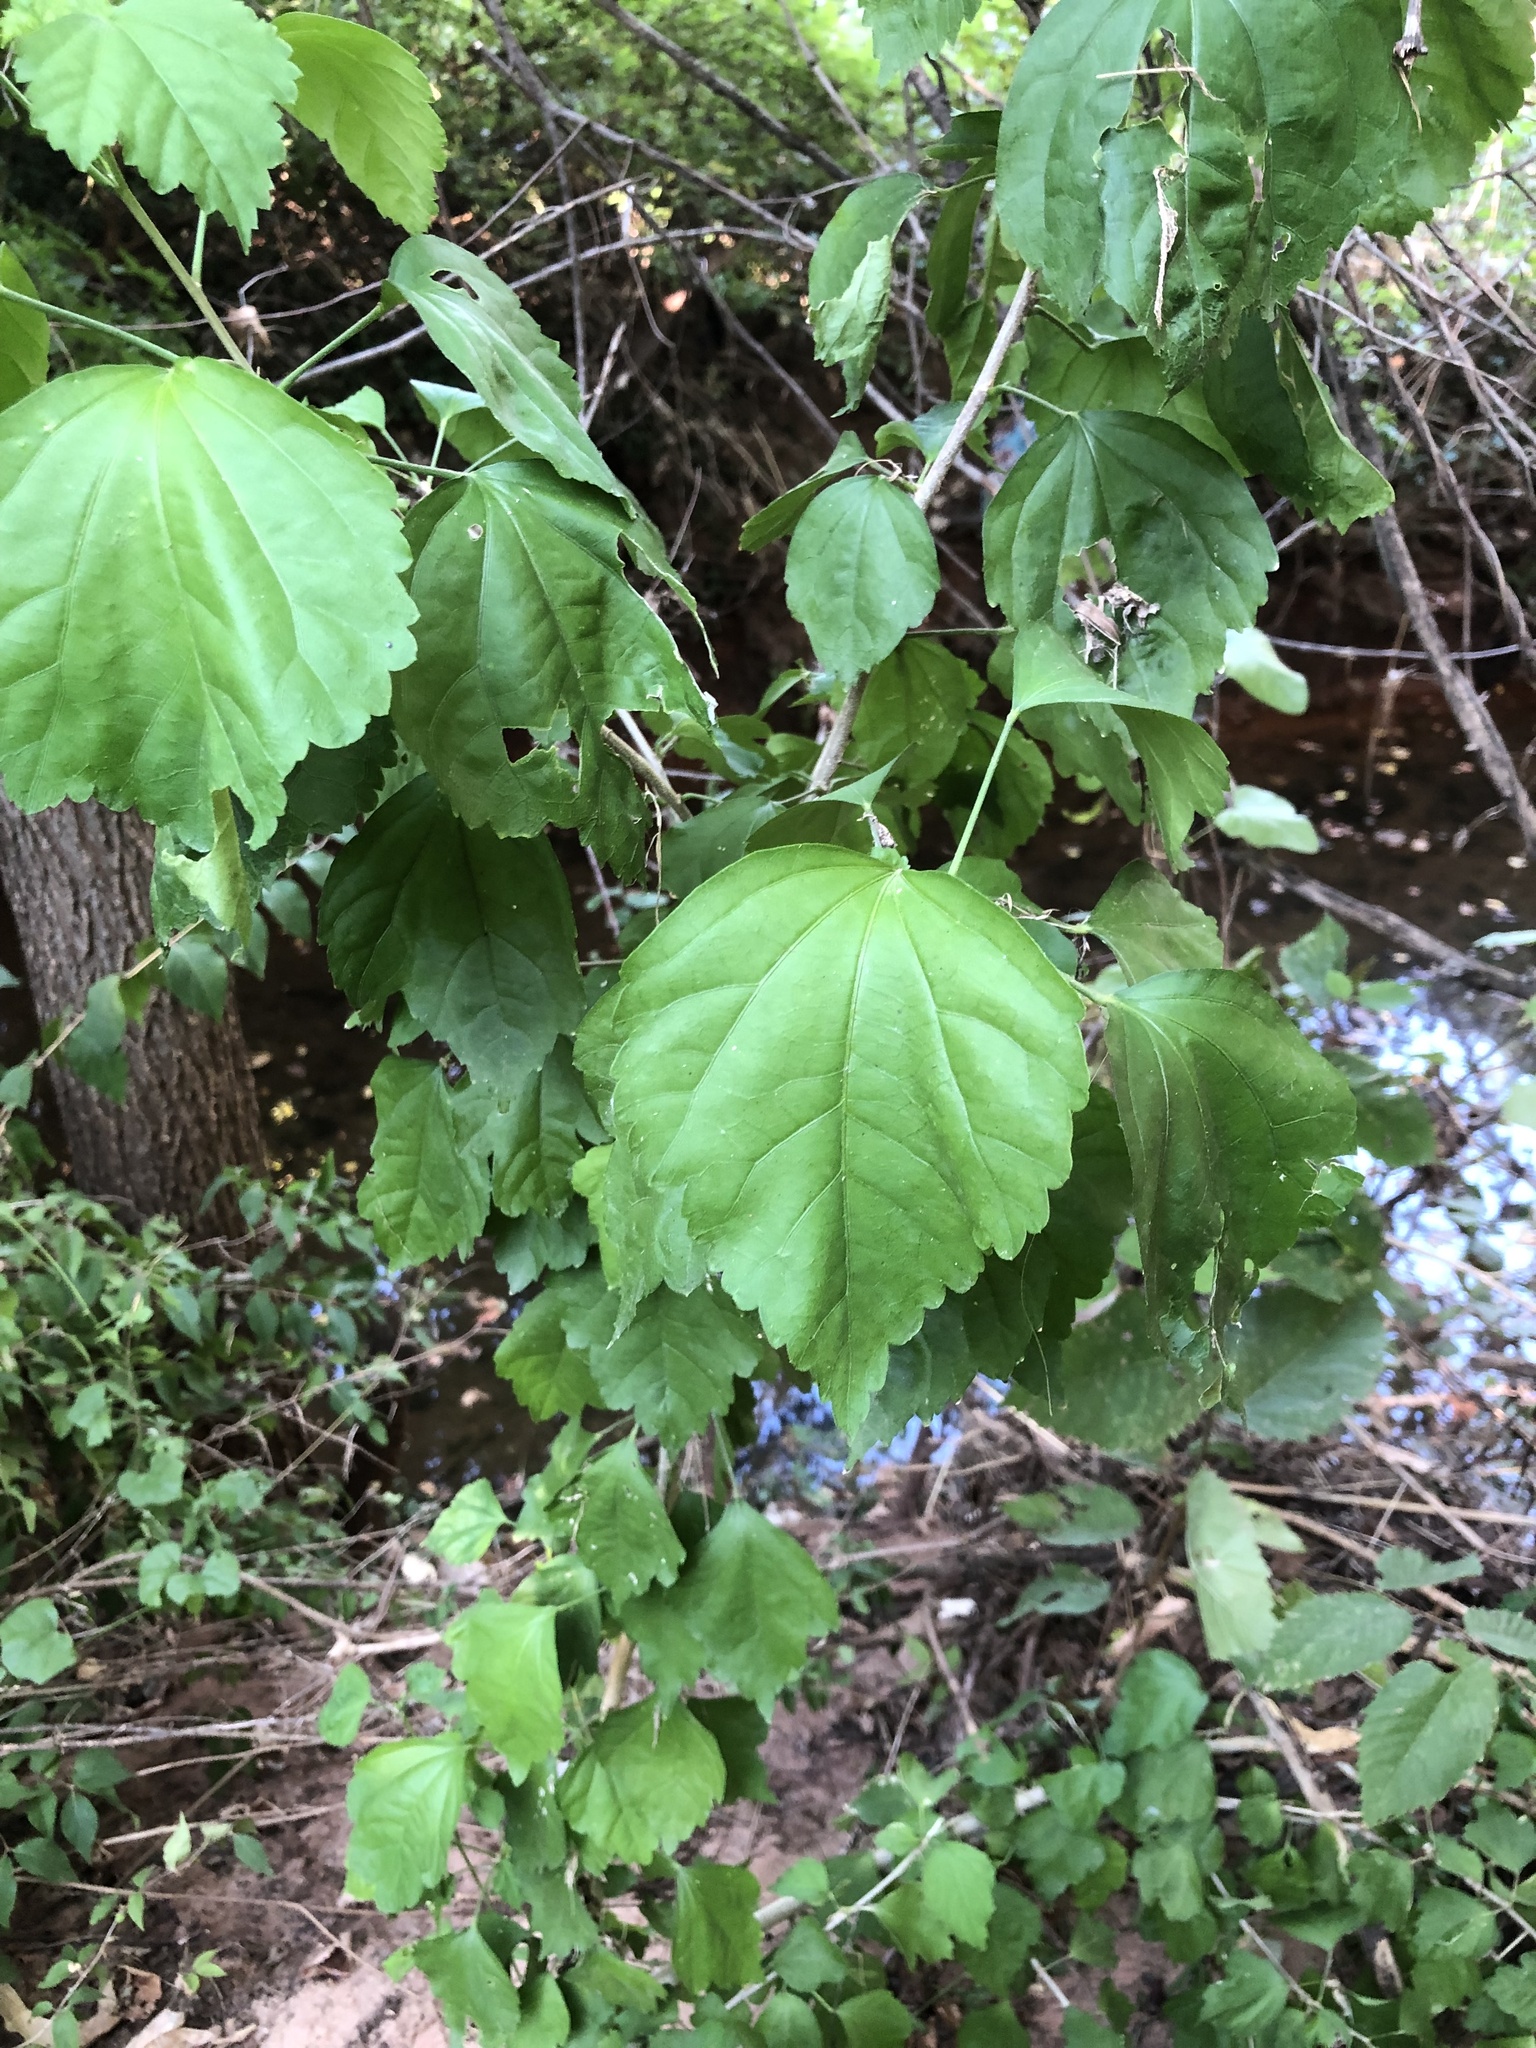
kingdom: Plantae
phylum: Tracheophyta
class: Magnoliopsida
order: Malvales
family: Malvaceae
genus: Hibiscus
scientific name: Hibiscus syriacus
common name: Syrian ketmia
